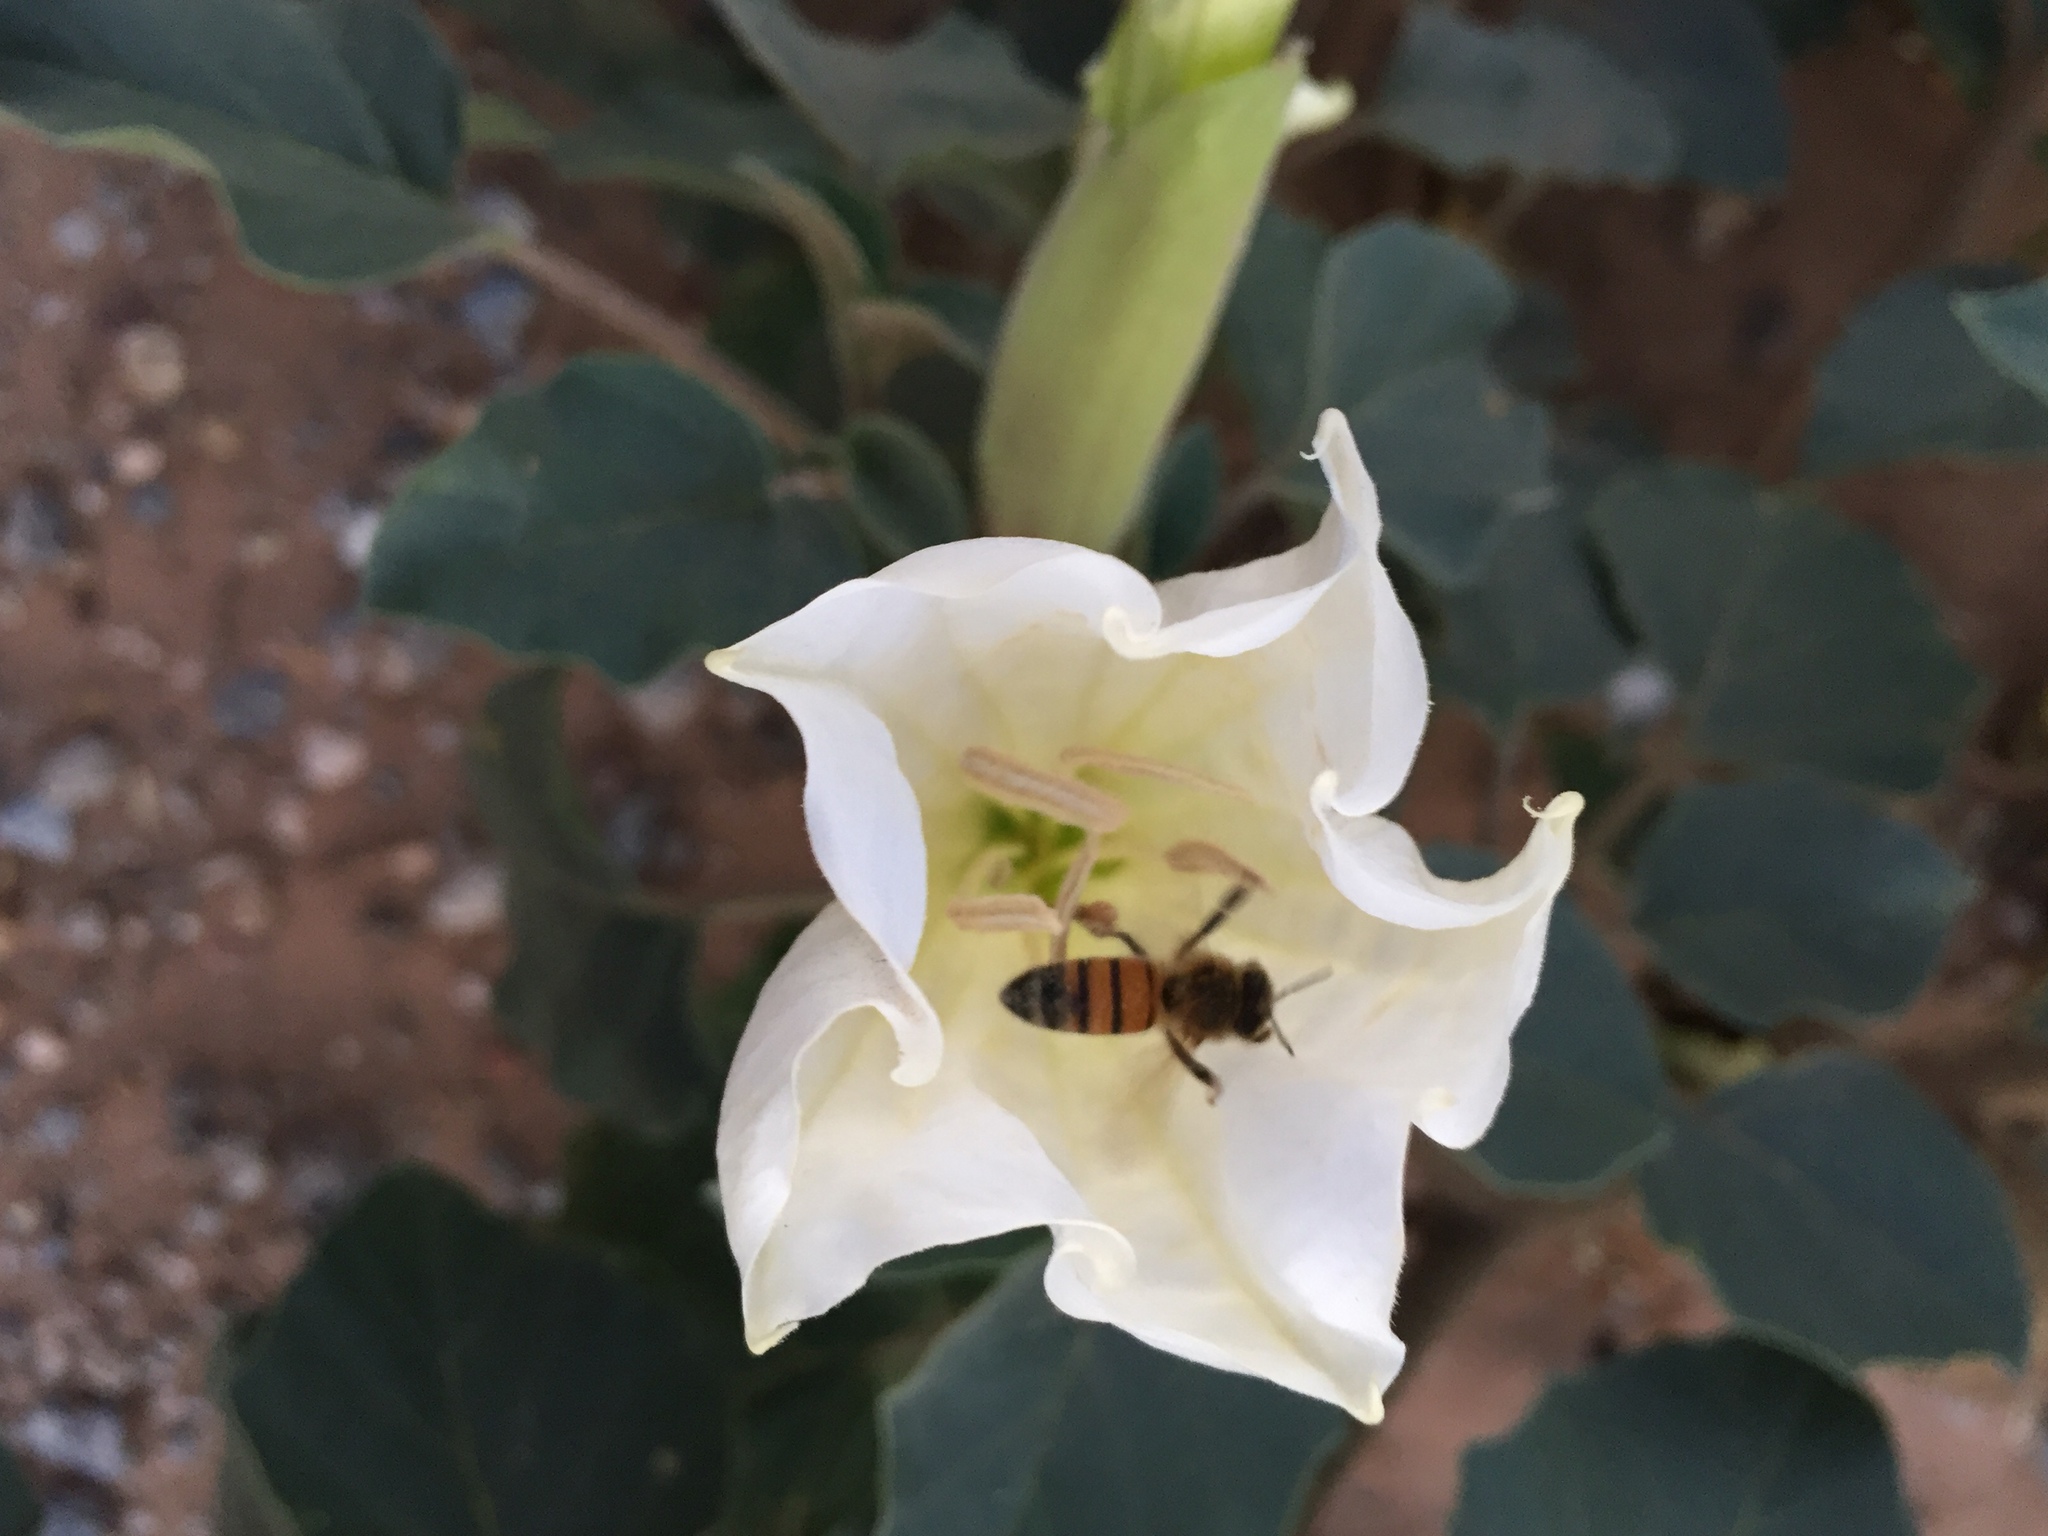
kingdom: Animalia
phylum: Arthropoda
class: Insecta
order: Hymenoptera
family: Apidae
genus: Apis
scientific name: Apis mellifera
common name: Honey bee
